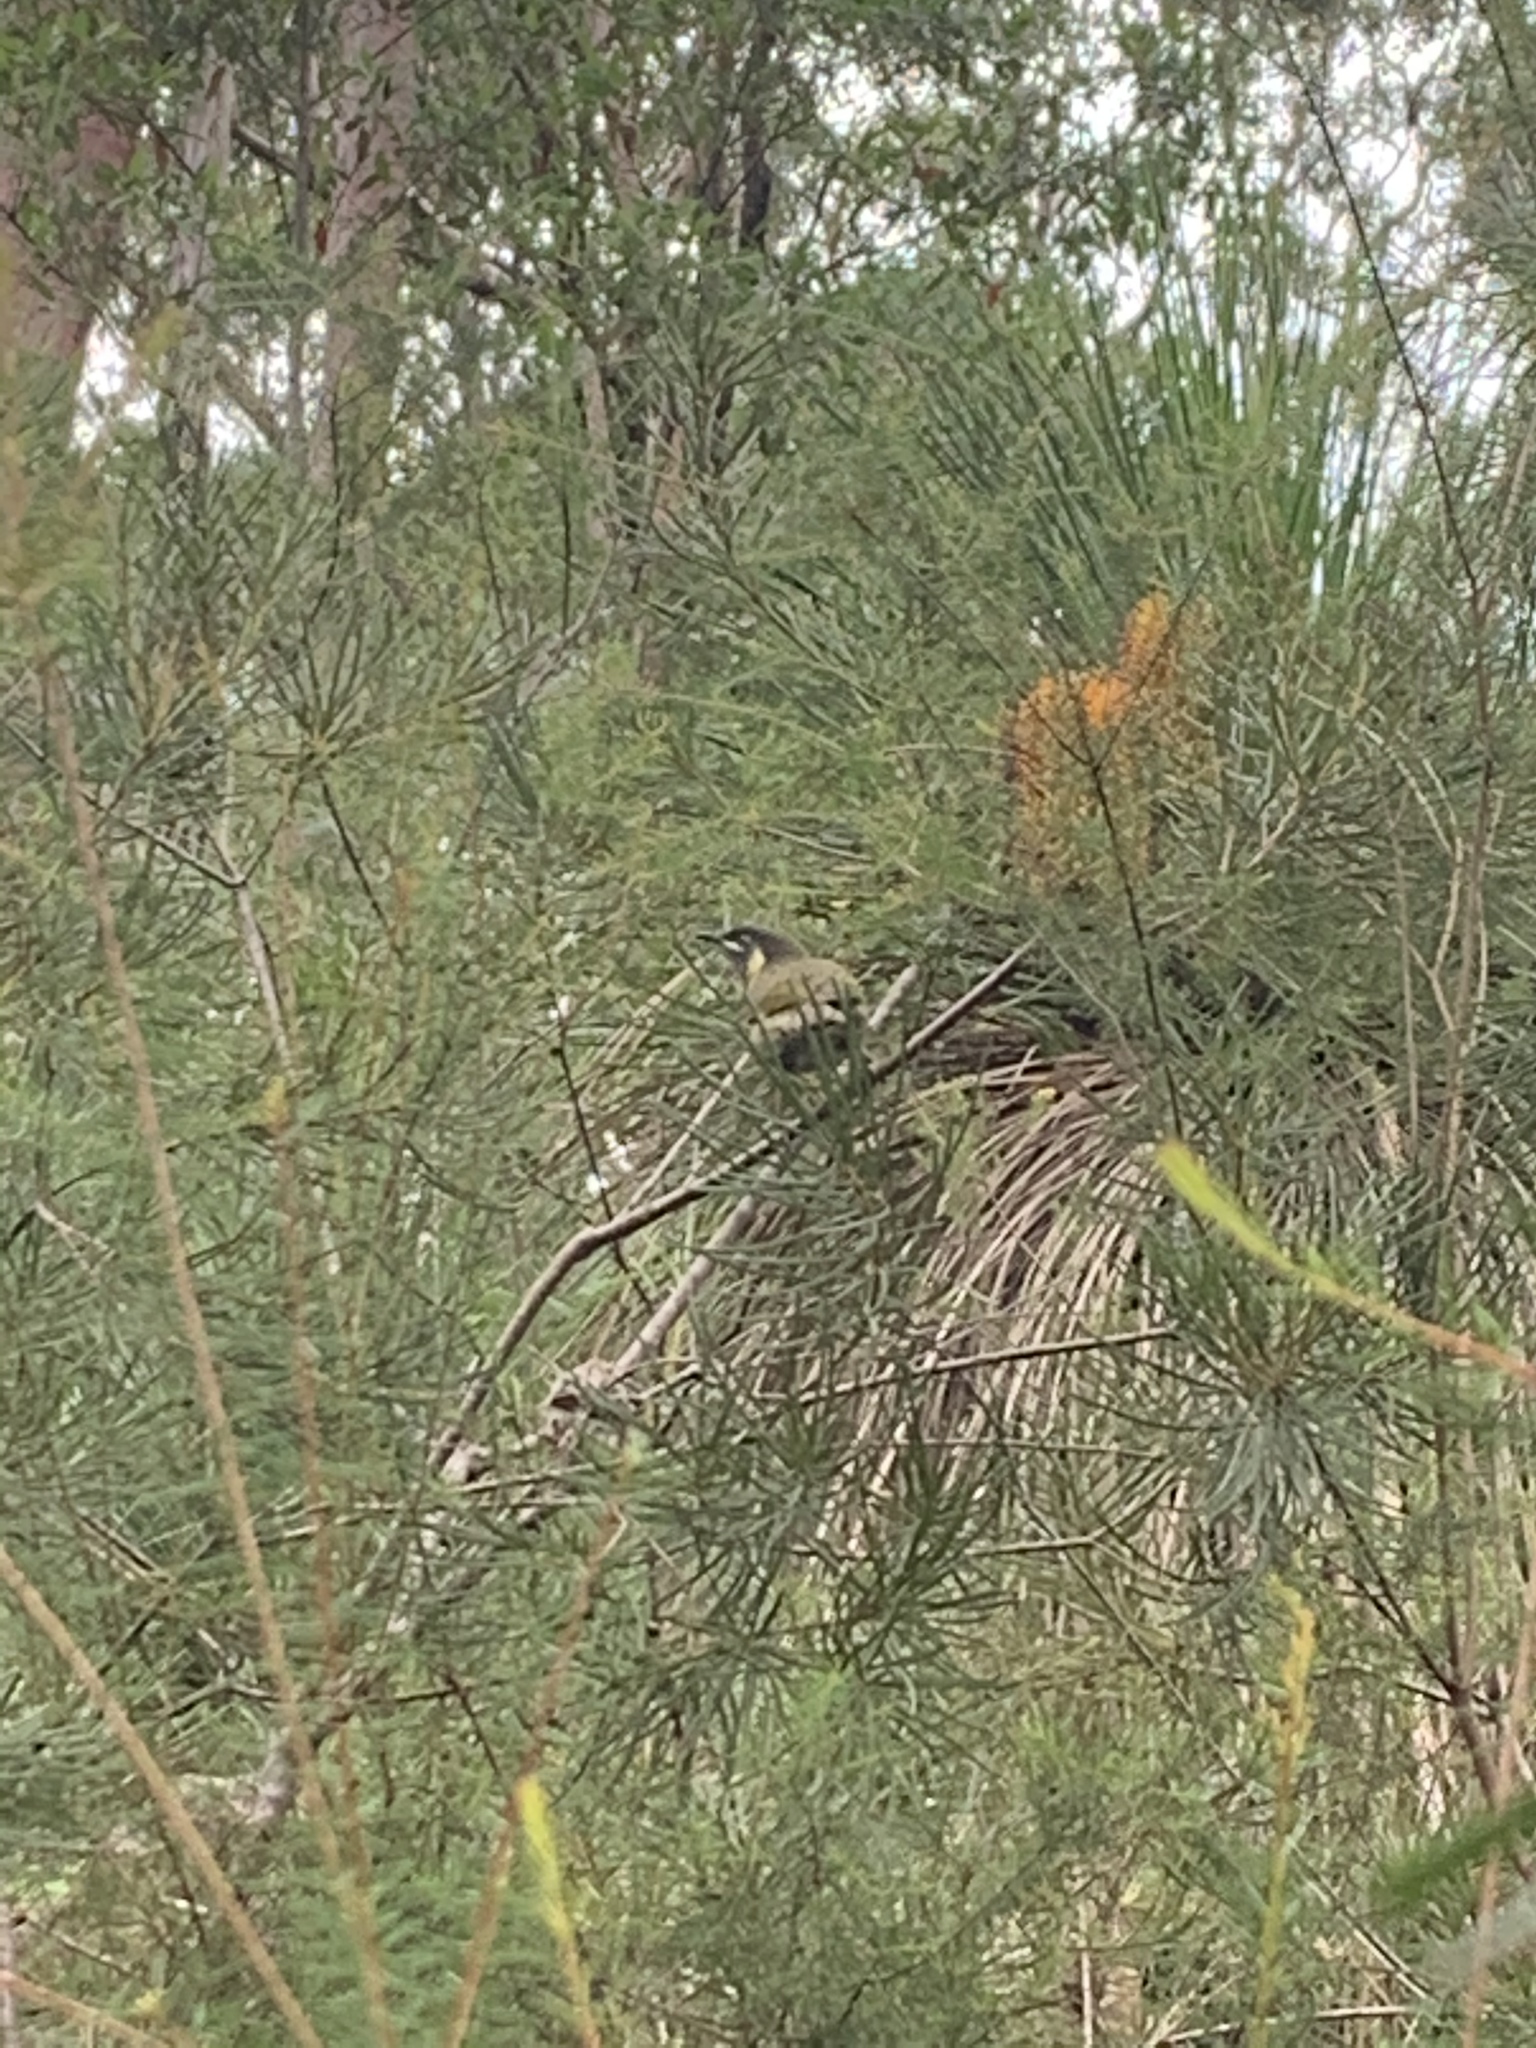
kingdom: Animalia
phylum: Chordata
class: Aves
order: Passeriformes
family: Meliphagidae
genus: Meliphaga
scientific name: Meliphaga lewinii
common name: Lewin's honeyeater
